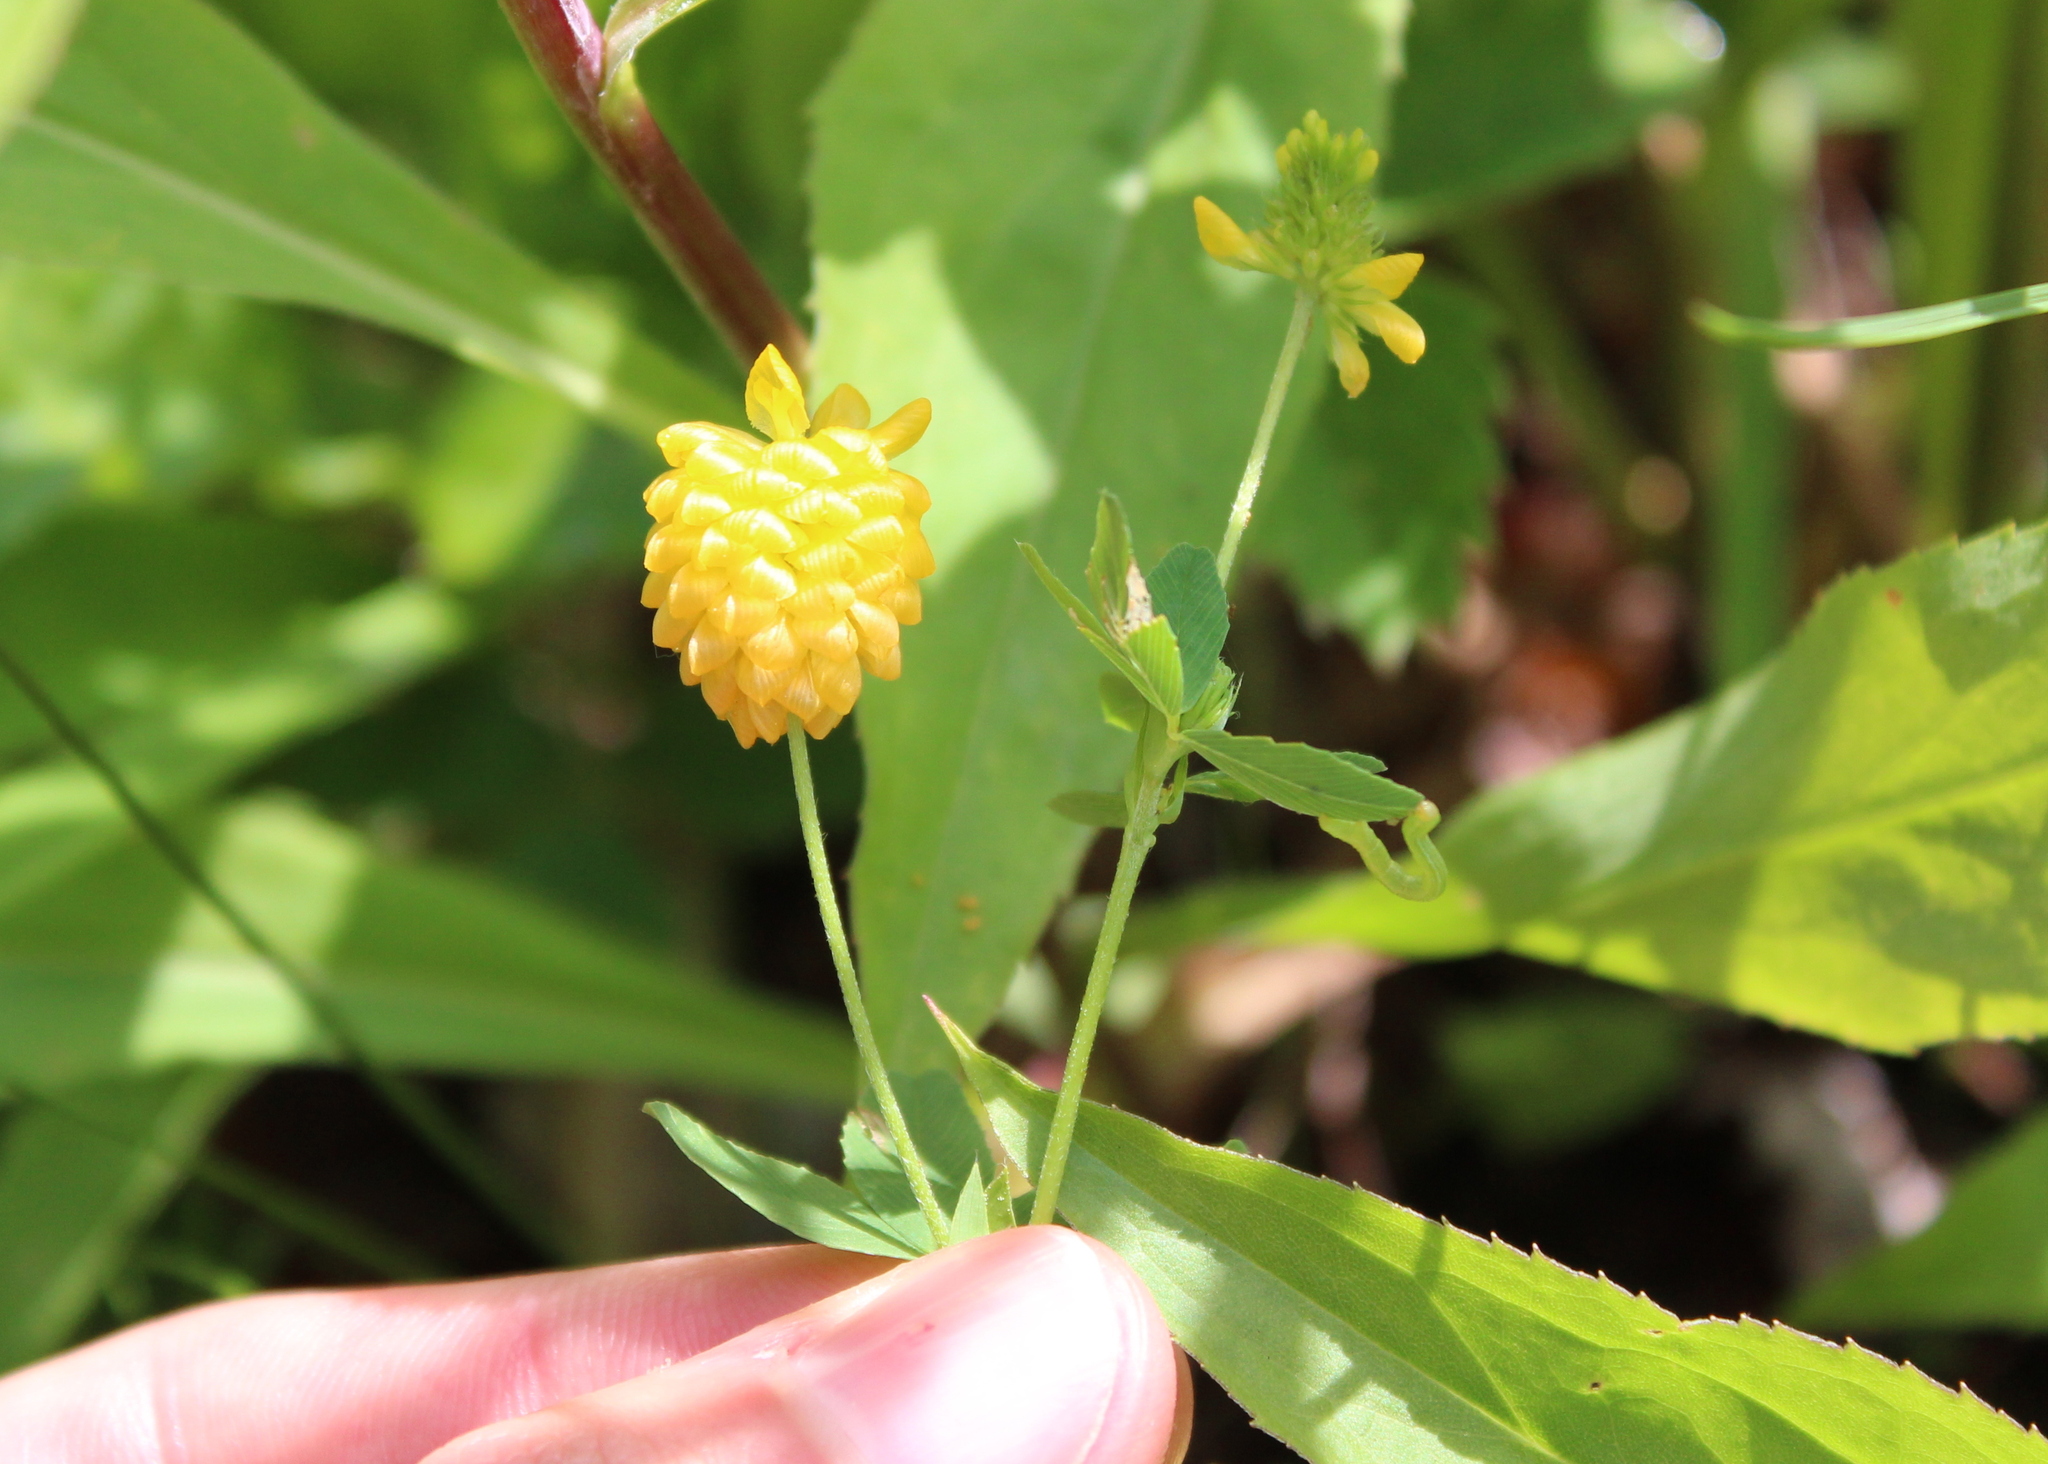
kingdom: Plantae
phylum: Tracheophyta
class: Magnoliopsida
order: Fabales
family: Fabaceae
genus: Trifolium
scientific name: Trifolium aureum
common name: Golden clover
